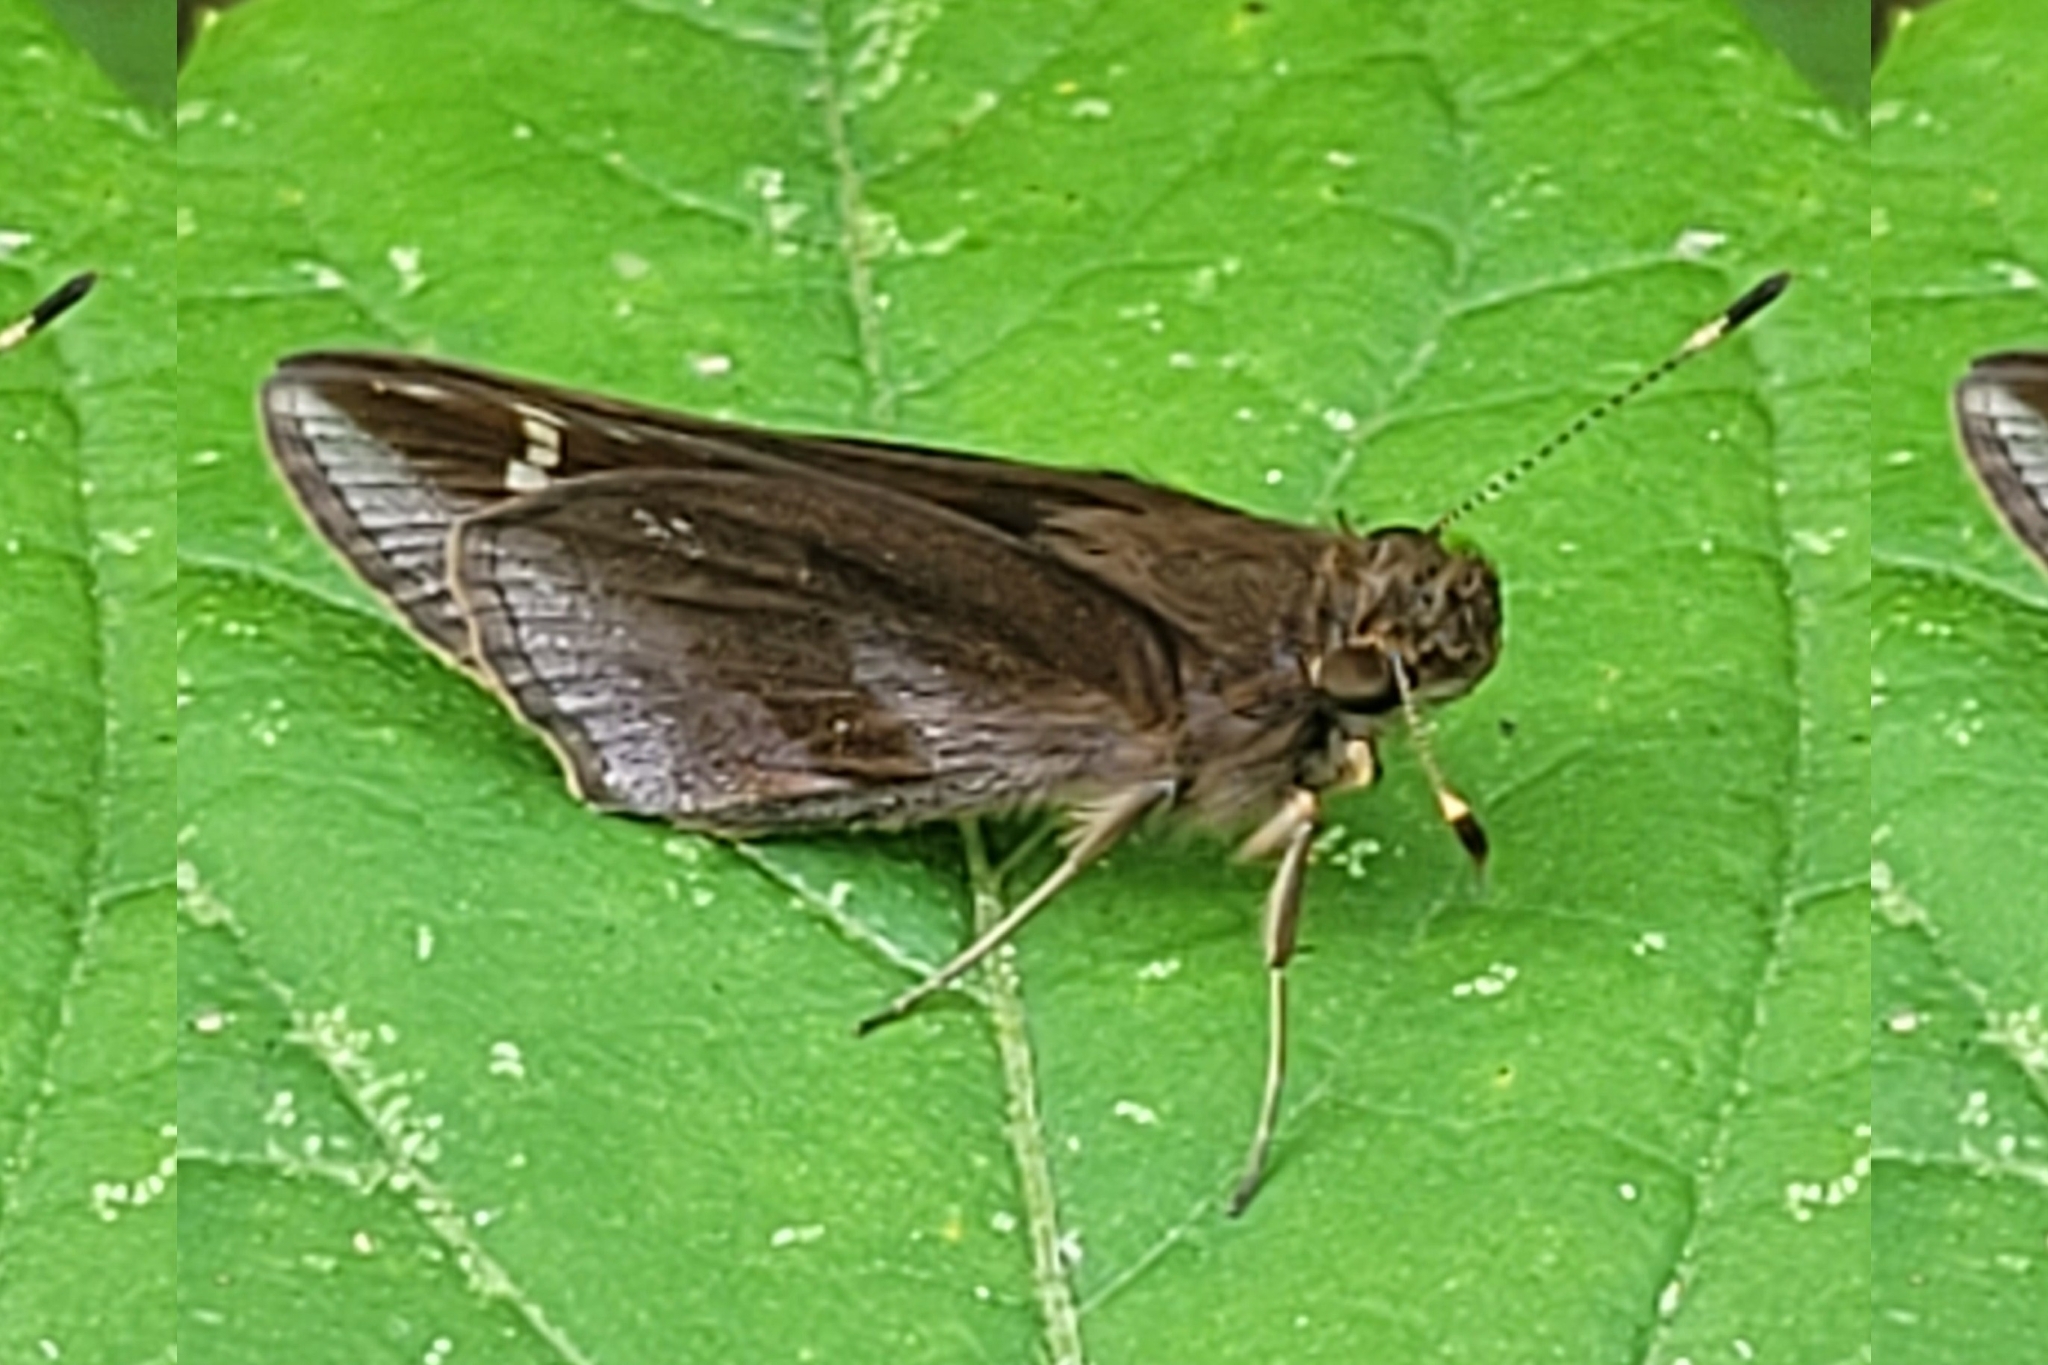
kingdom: Animalia
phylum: Arthropoda
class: Insecta
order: Lepidoptera
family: Hesperiidae
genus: Lerema
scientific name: Lerema accius
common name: Clouded skipper
